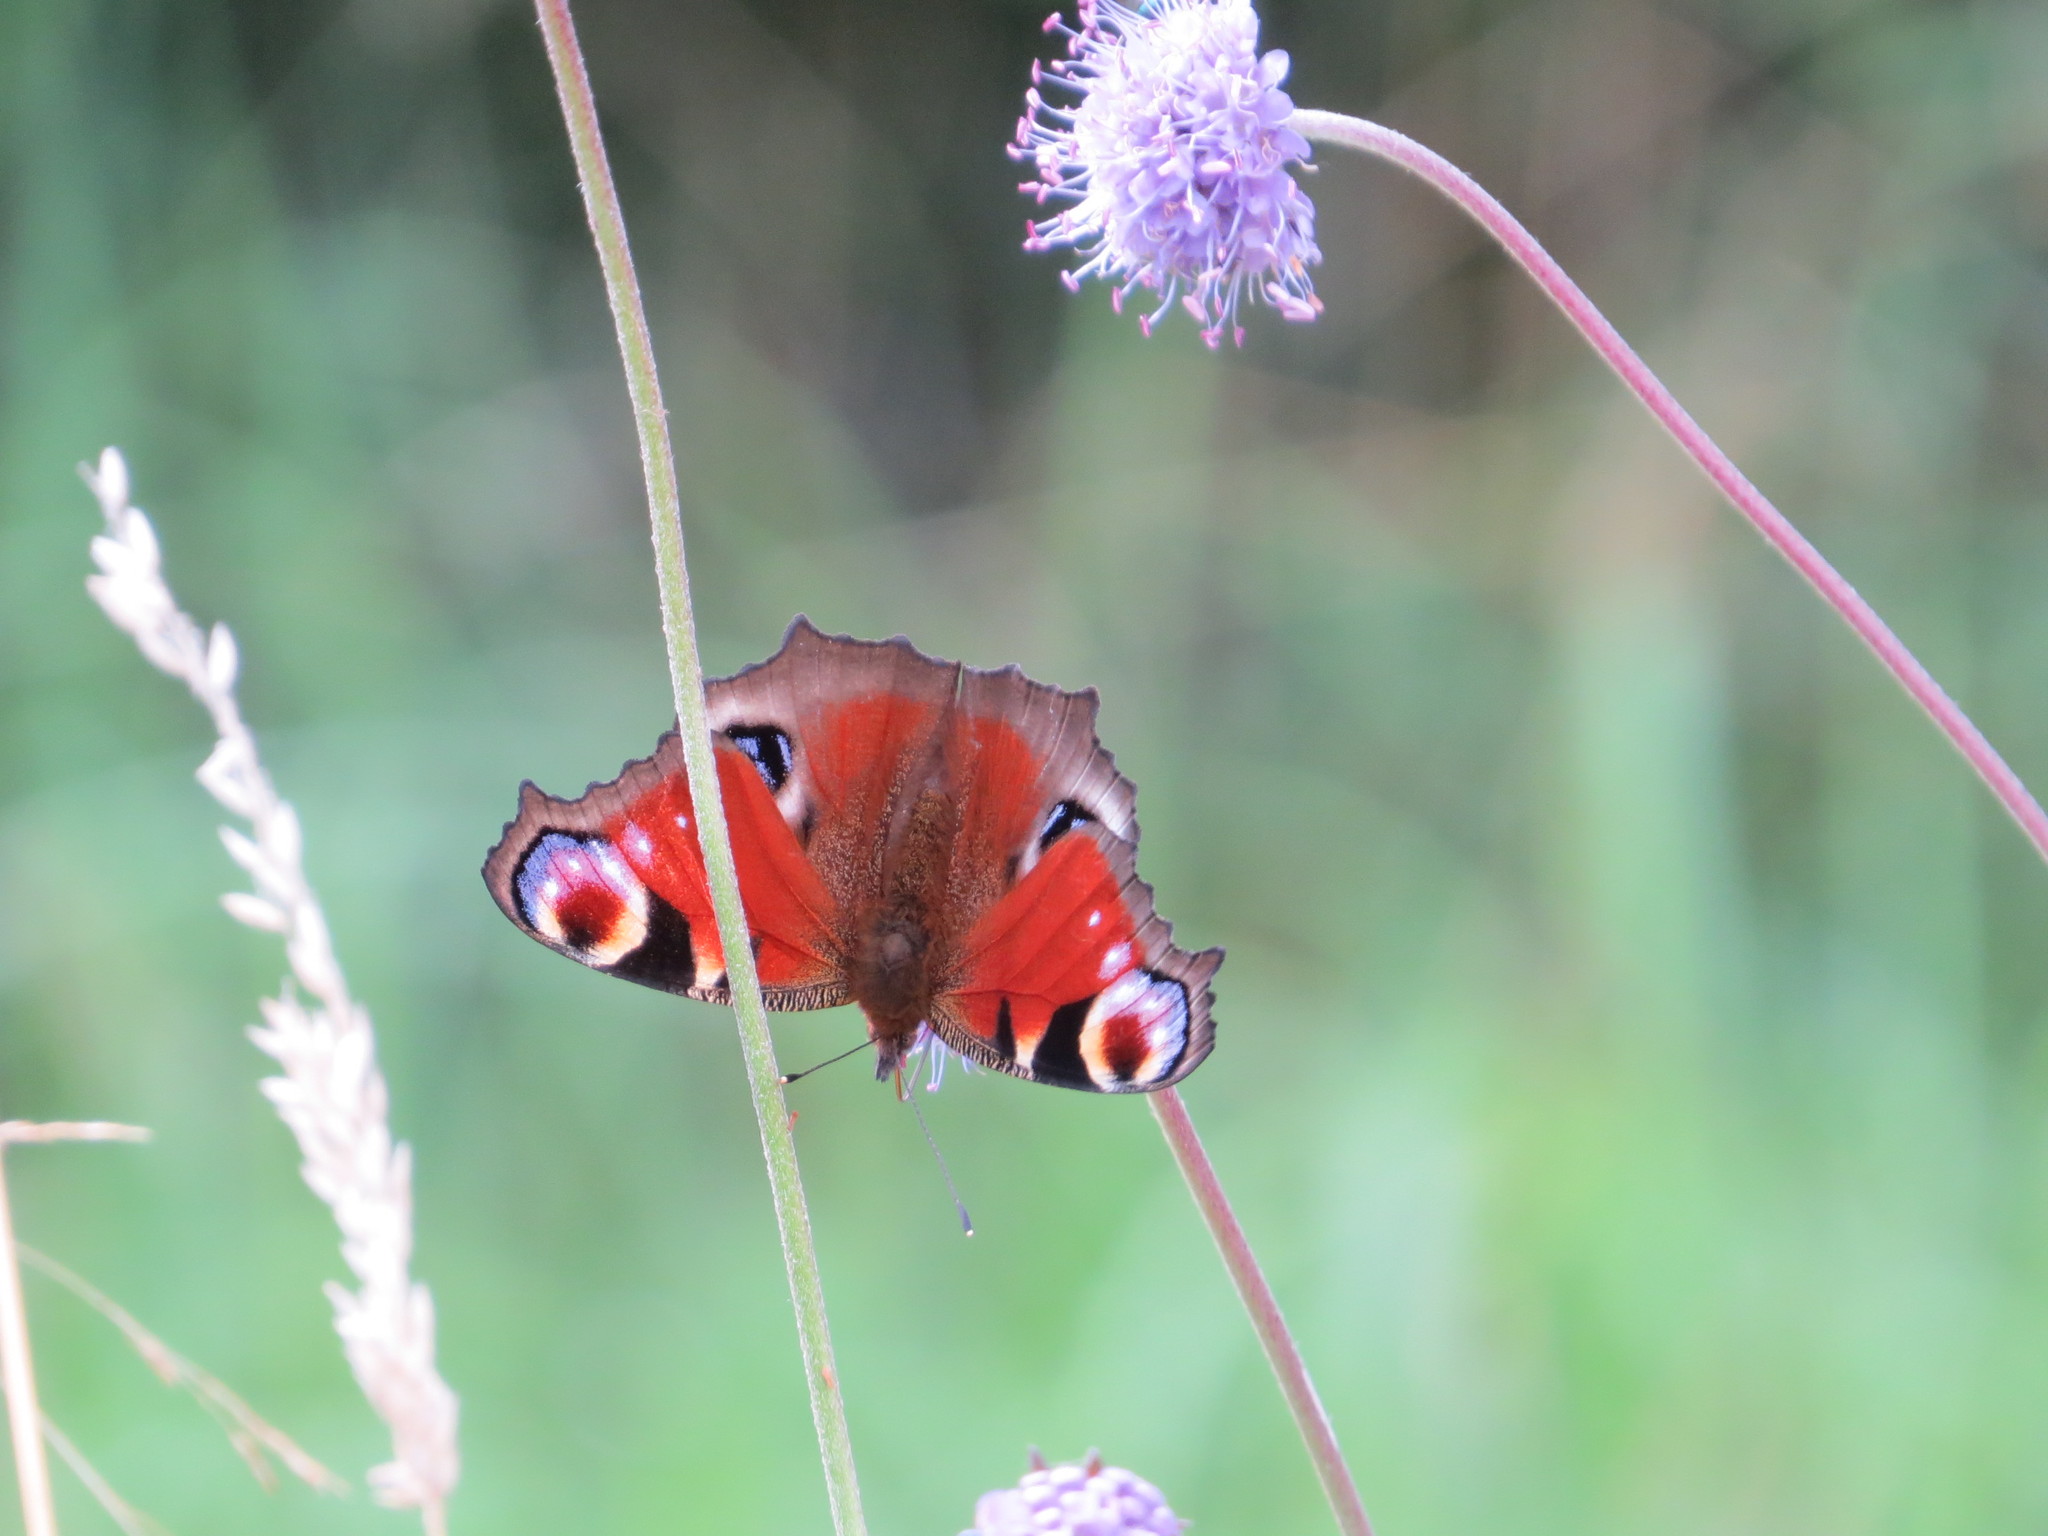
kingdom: Animalia
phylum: Arthropoda
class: Insecta
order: Lepidoptera
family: Nymphalidae
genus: Aglais
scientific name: Aglais io
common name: Peacock
